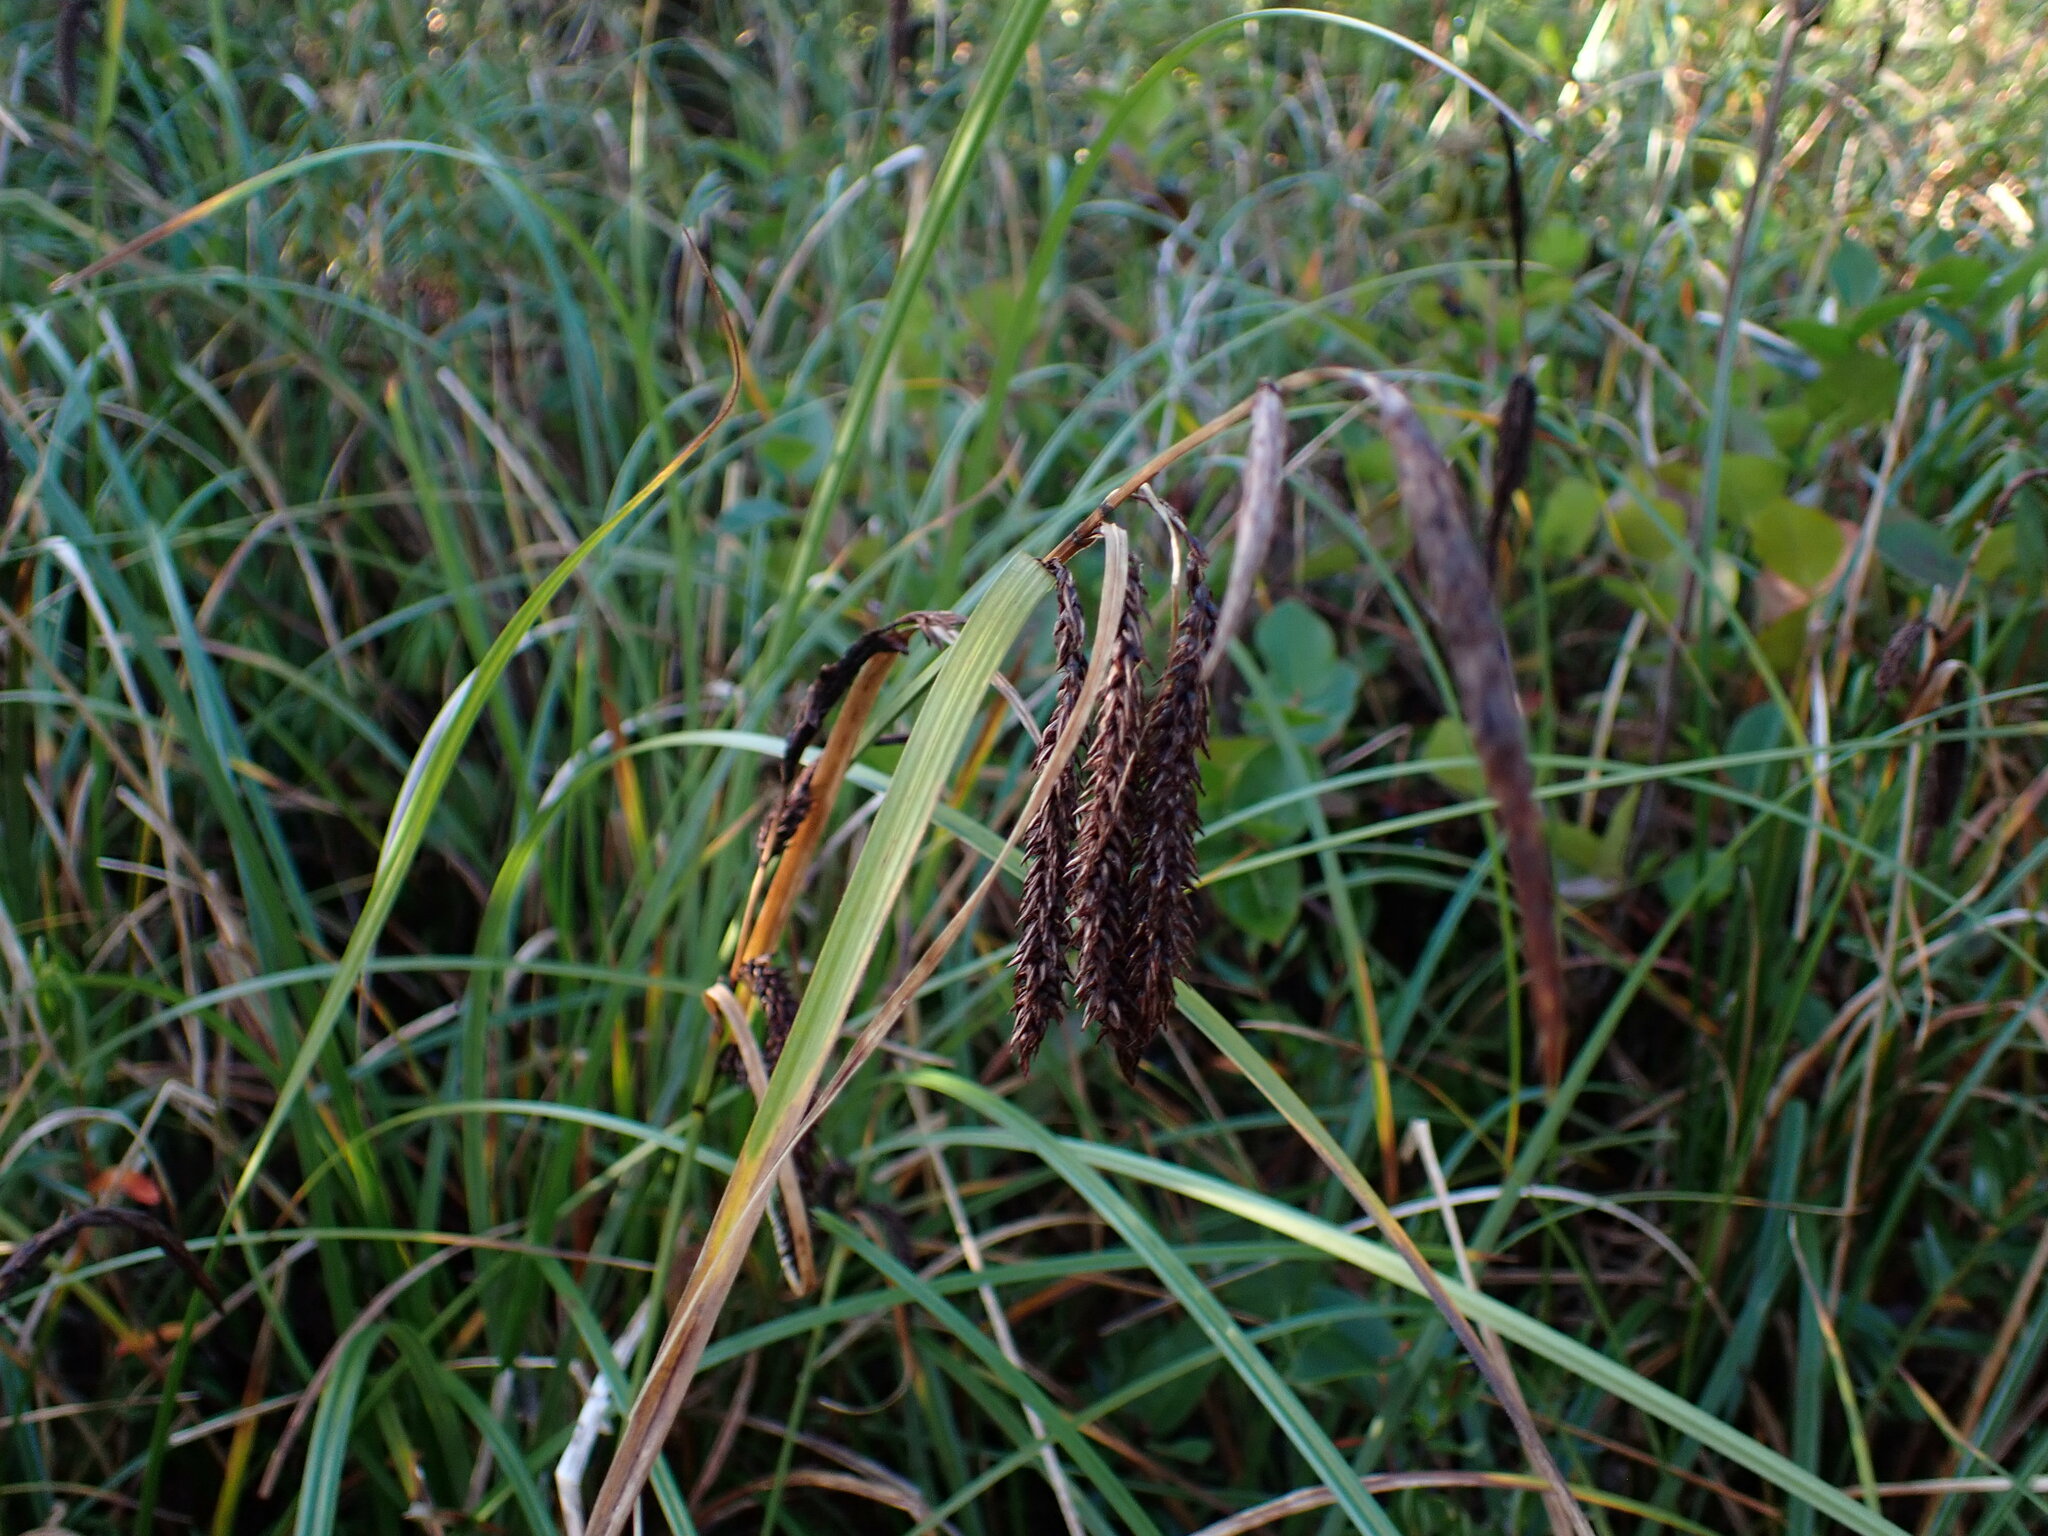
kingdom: Plantae
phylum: Tracheophyta
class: Liliopsida
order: Poales
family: Cyperaceae
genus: Carex
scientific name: Carex obnupta
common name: Slough sedge
